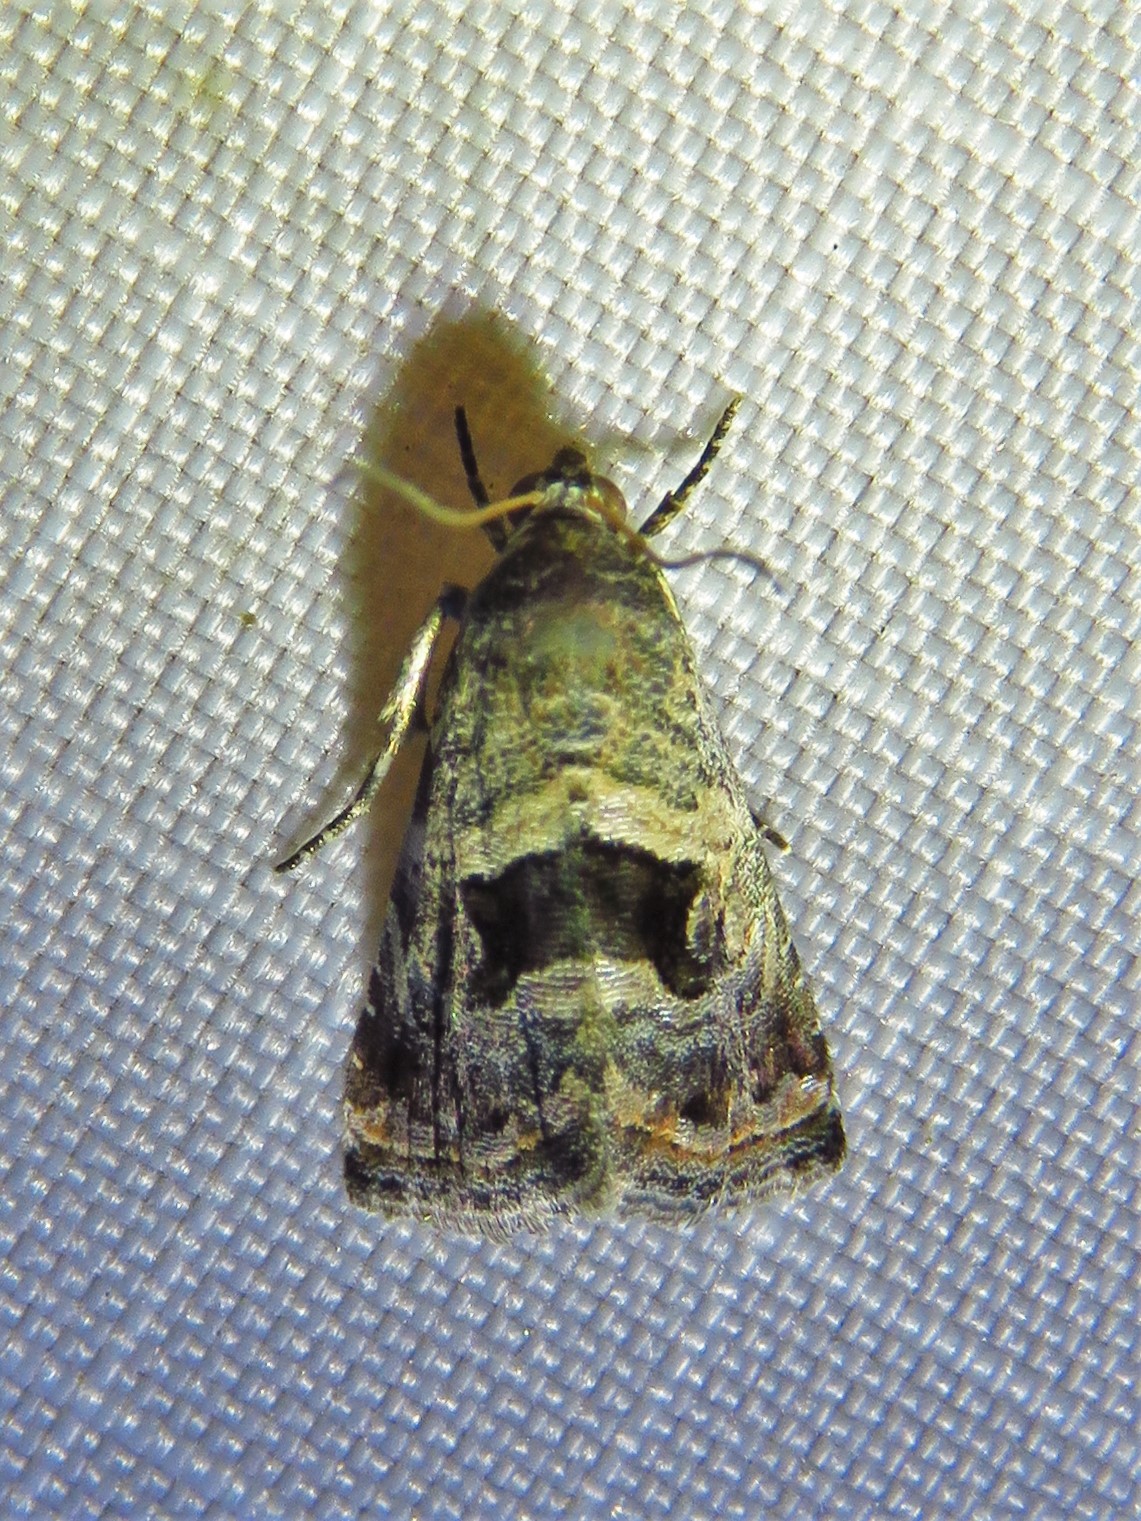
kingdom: Animalia
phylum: Arthropoda
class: Insecta
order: Lepidoptera
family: Noctuidae
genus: Tripudia
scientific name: Tripudia quadrifera
